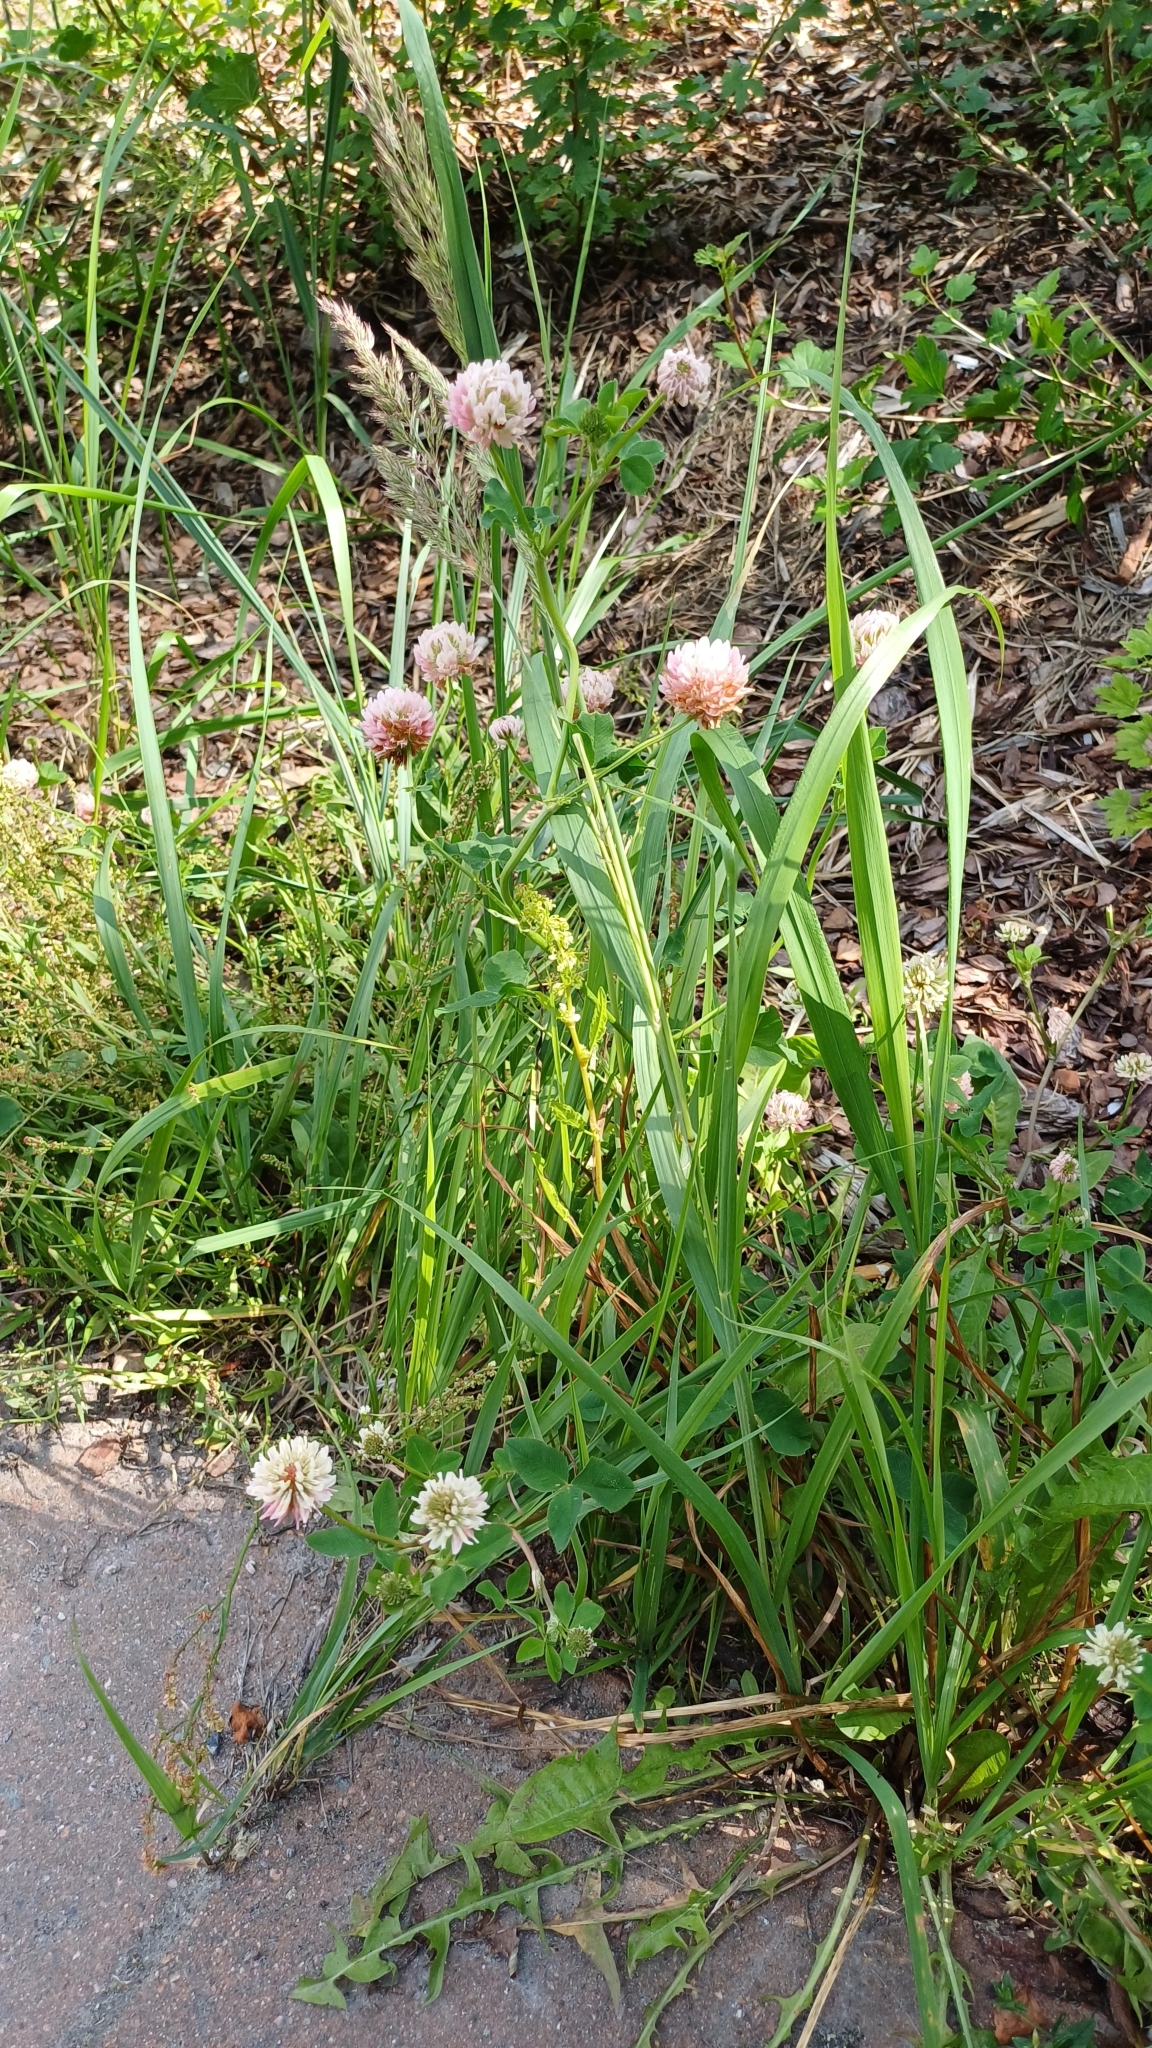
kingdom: Plantae
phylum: Tracheophyta
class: Magnoliopsida
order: Fabales
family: Fabaceae
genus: Trifolium
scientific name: Trifolium hybridum
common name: Alsike clover
